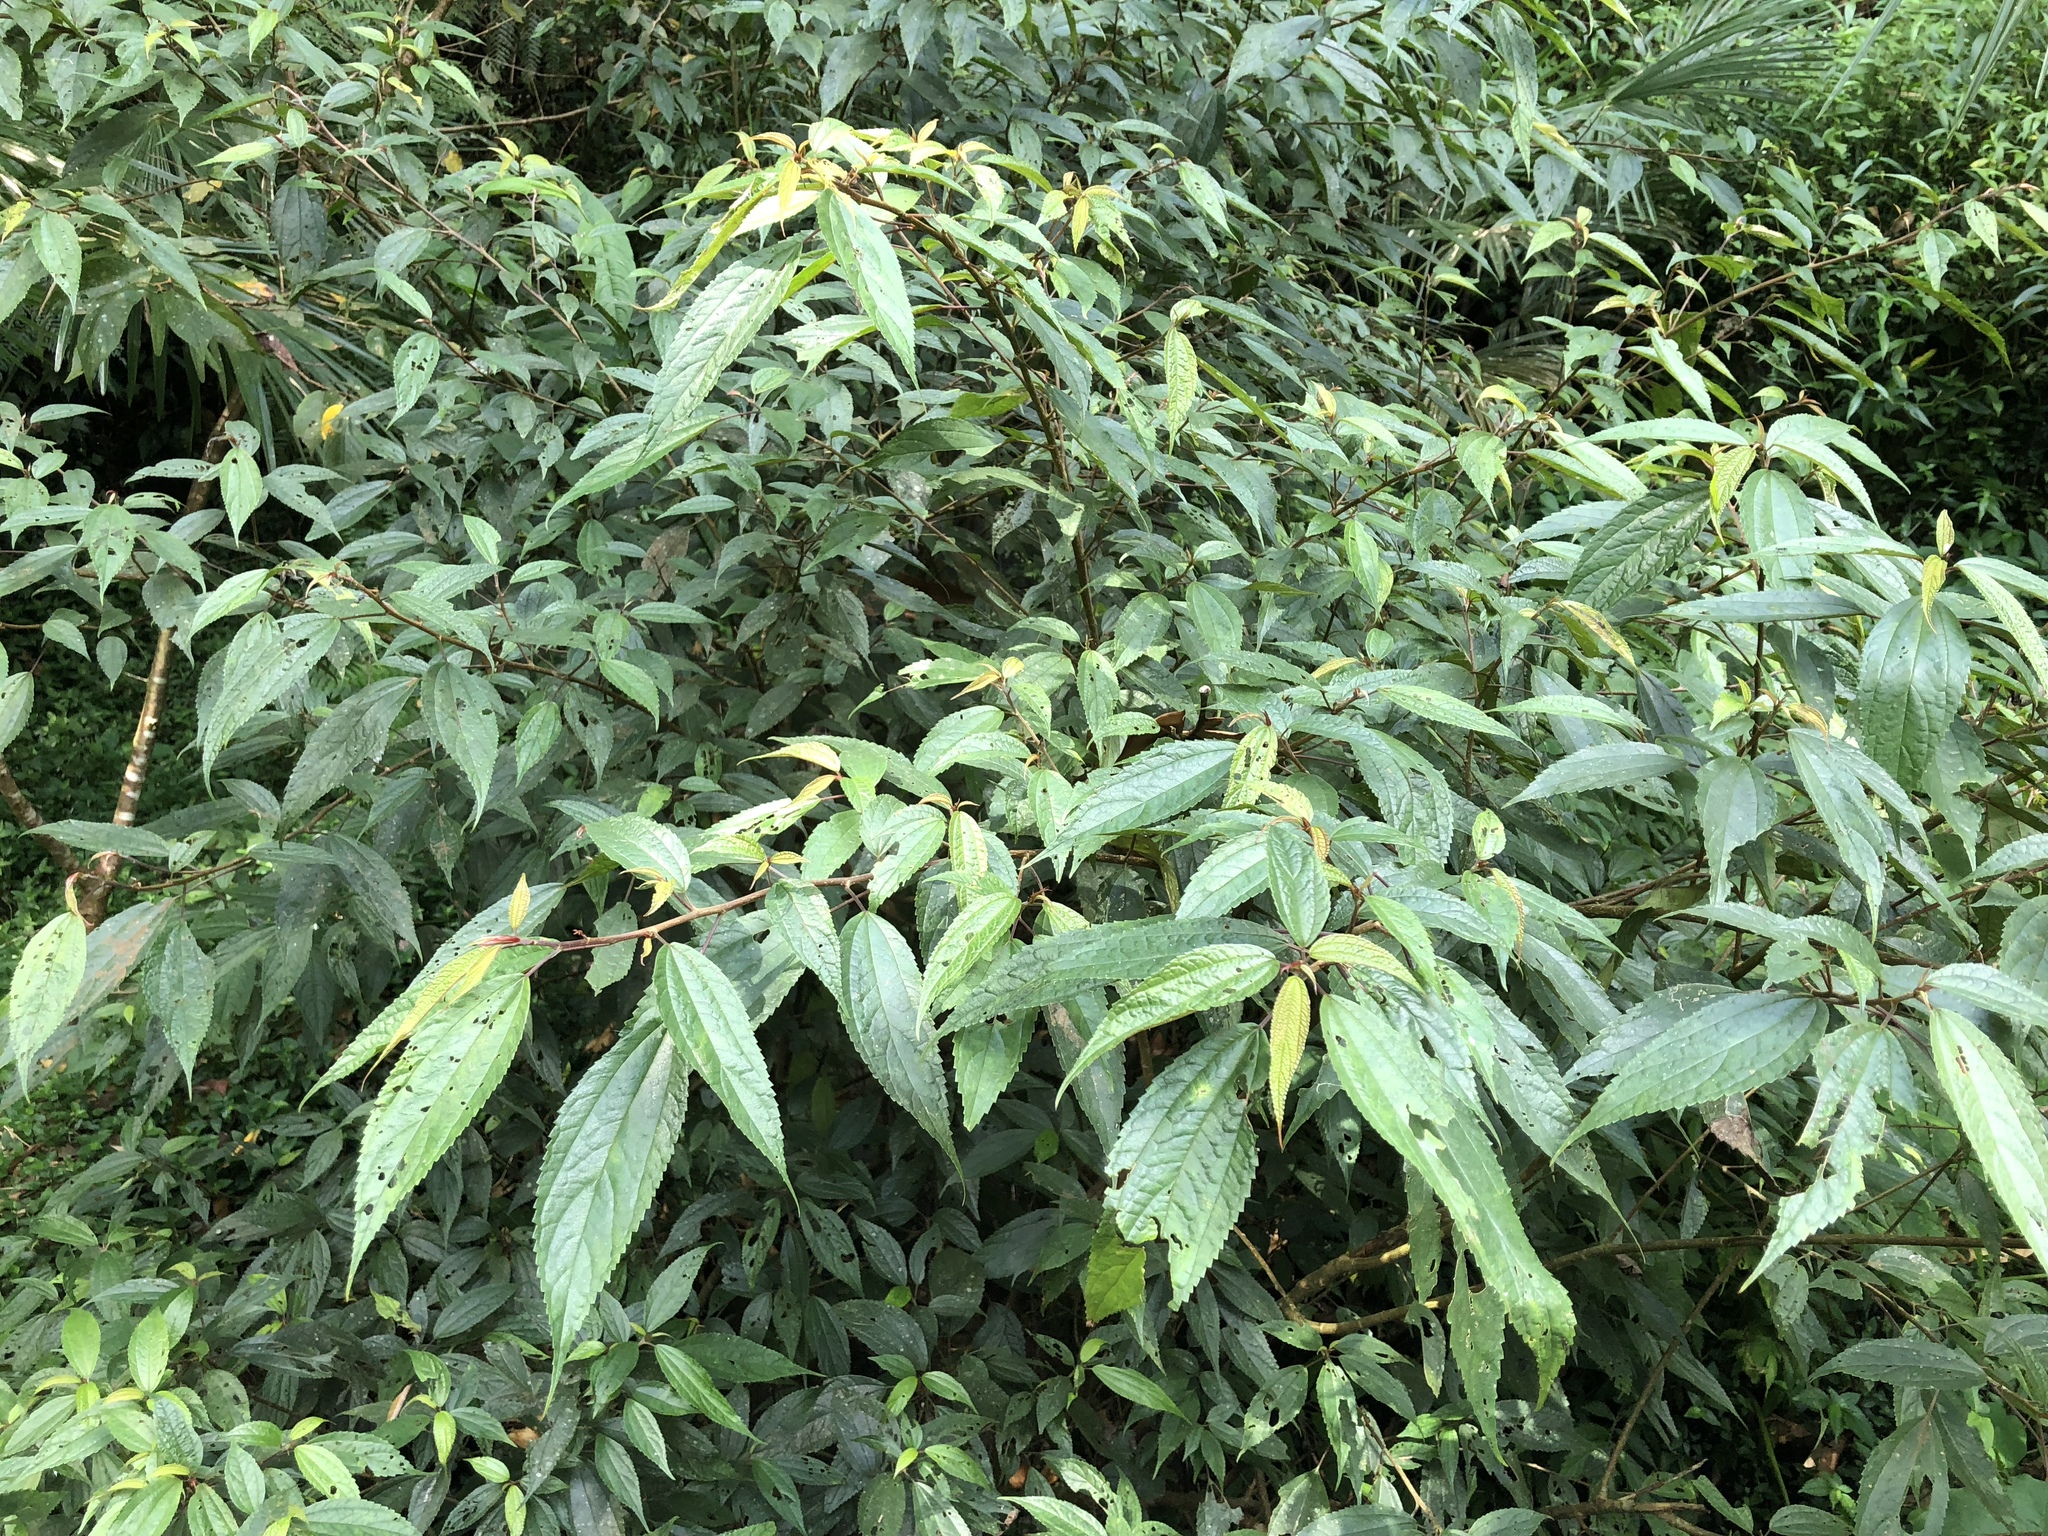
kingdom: Plantae
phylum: Tracheophyta
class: Magnoliopsida
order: Rosales
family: Urticaceae
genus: Oreocnide
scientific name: Oreocnide pedunculata
